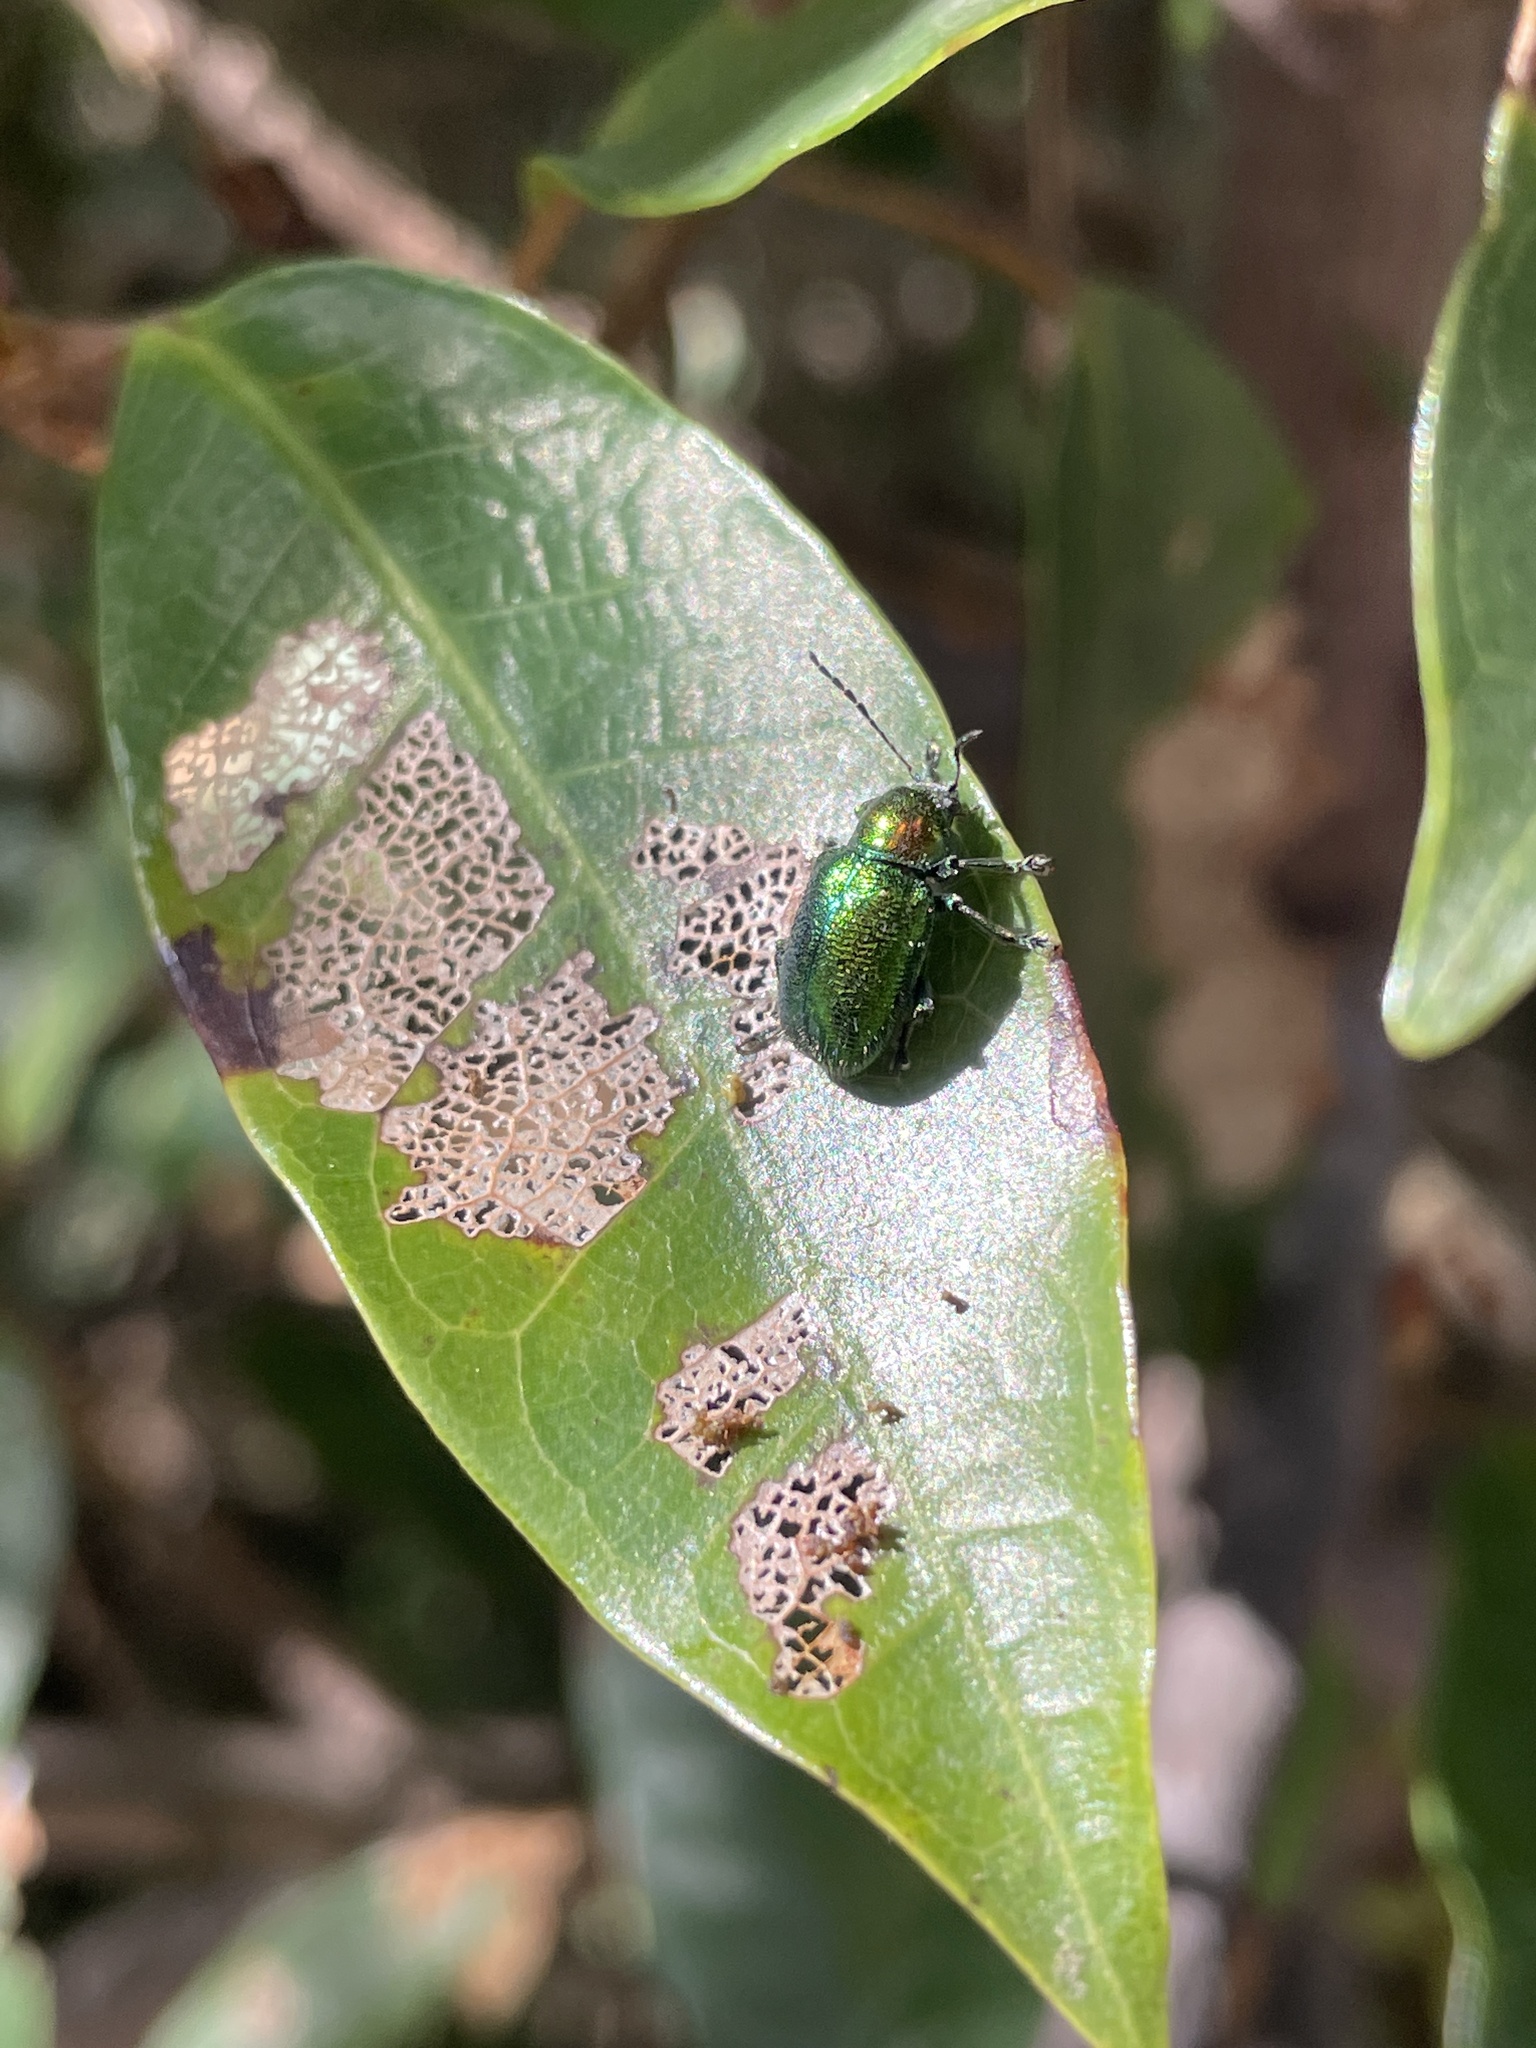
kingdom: Animalia
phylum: Arthropoda
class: Insecta
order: Coleoptera
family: Chrysomelidae
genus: Abirus
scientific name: Abirus fortuneii
